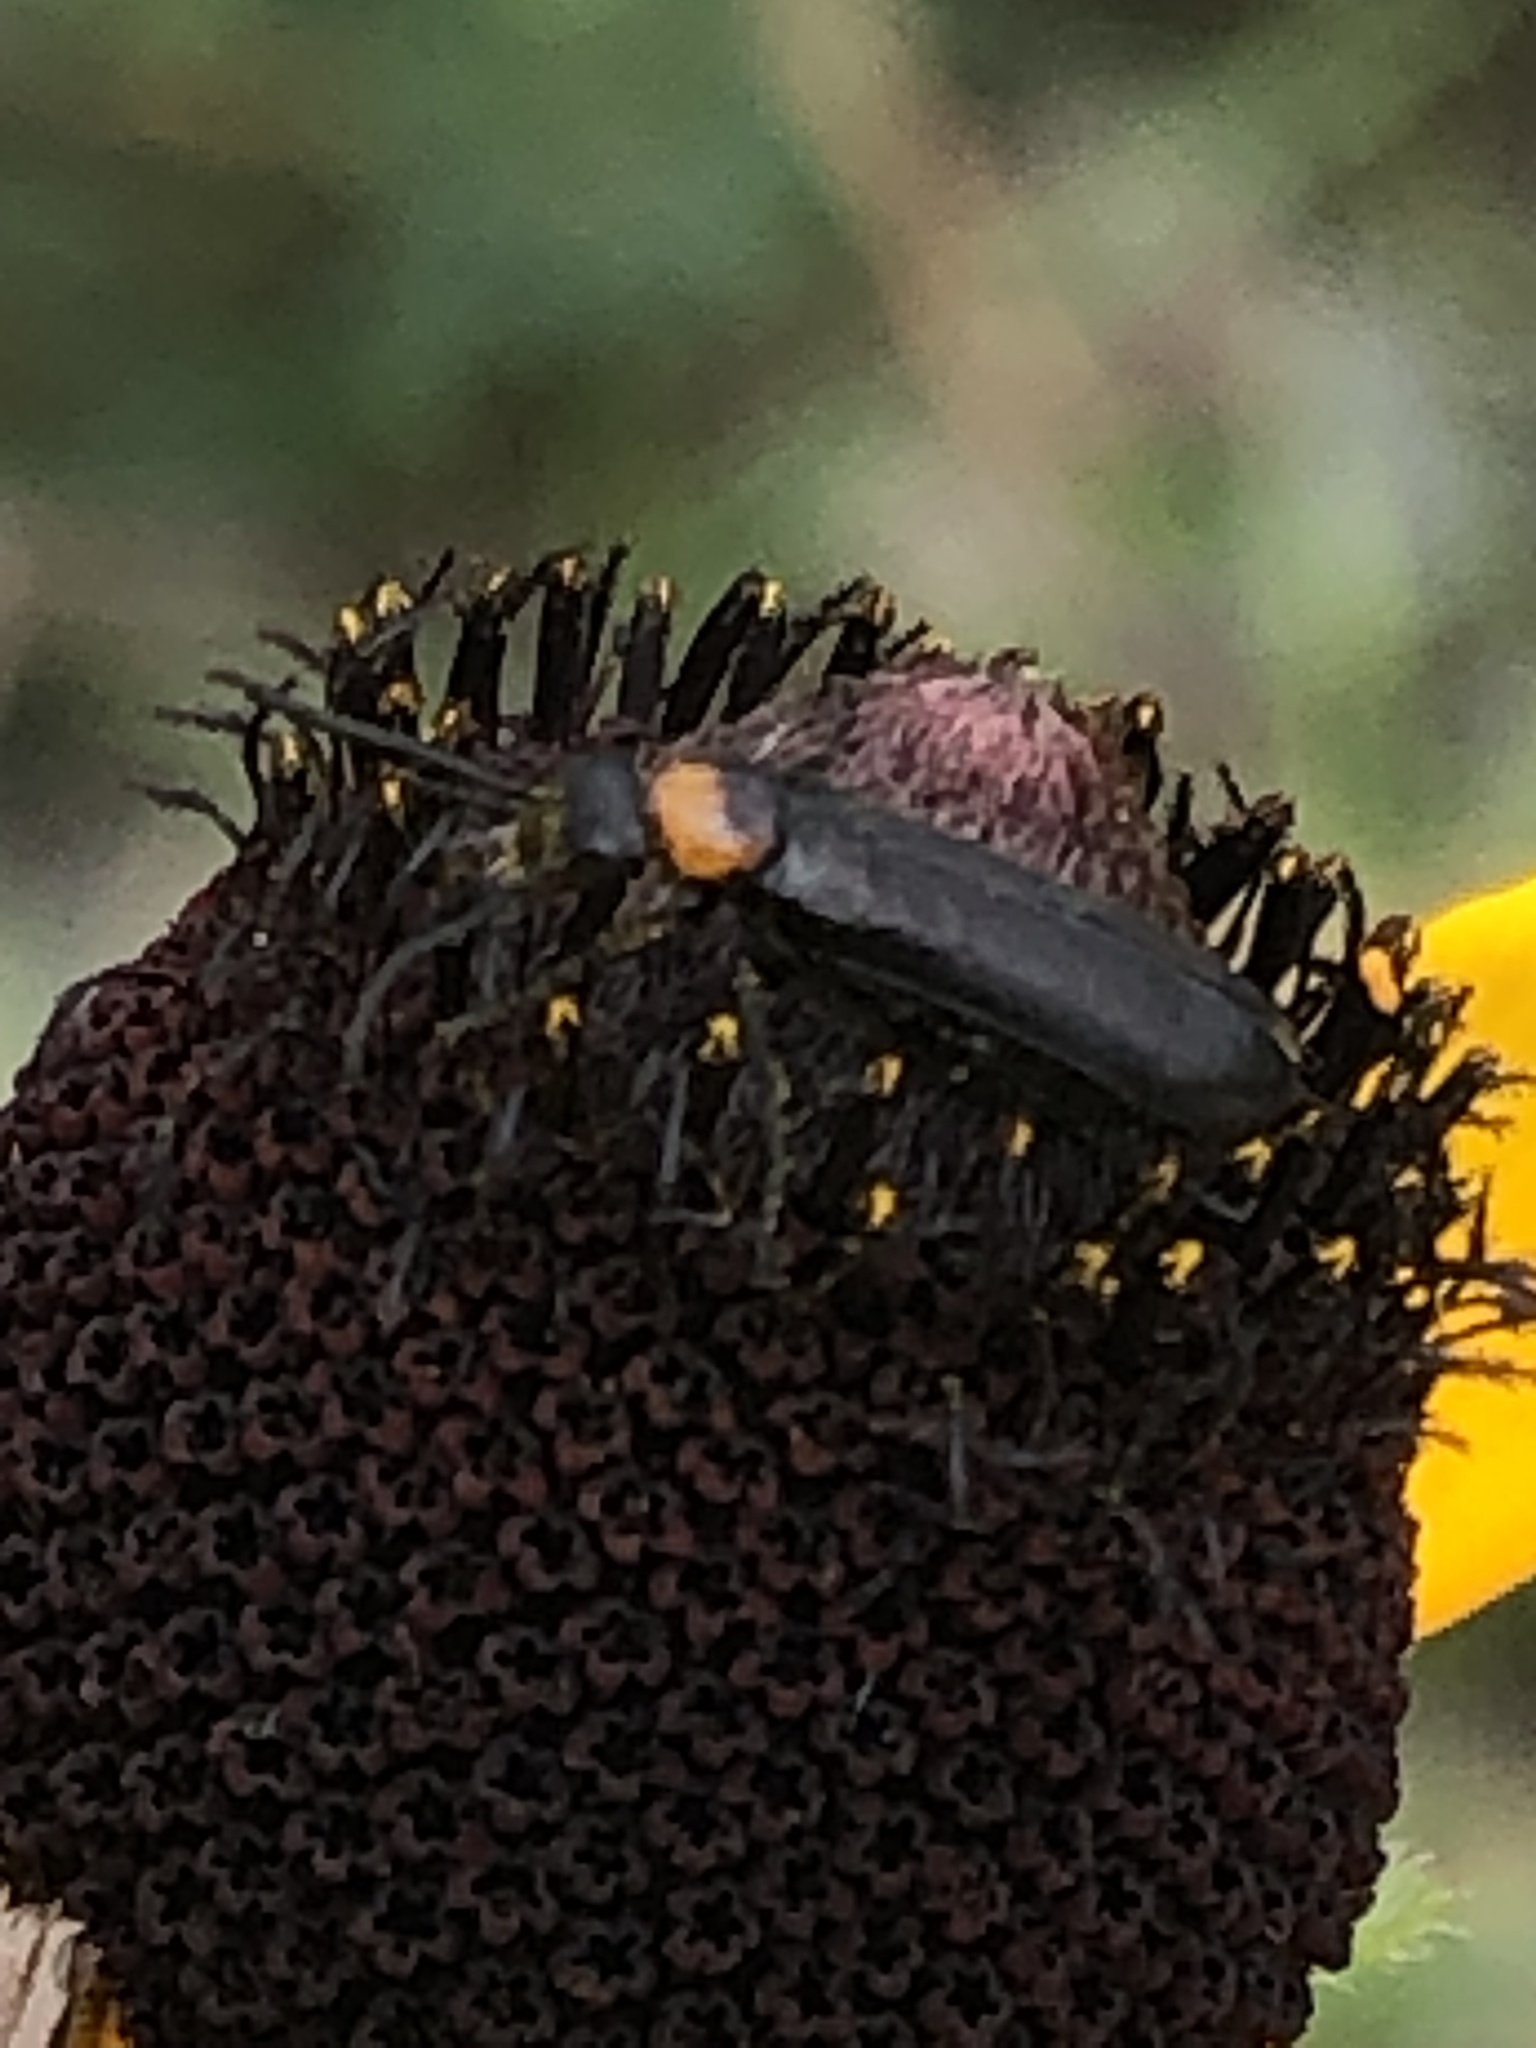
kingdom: Animalia
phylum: Arthropoda
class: Insecta
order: Coleoptera
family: Meloidae
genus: Nemognatha
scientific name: Nemognatha nemorensis
